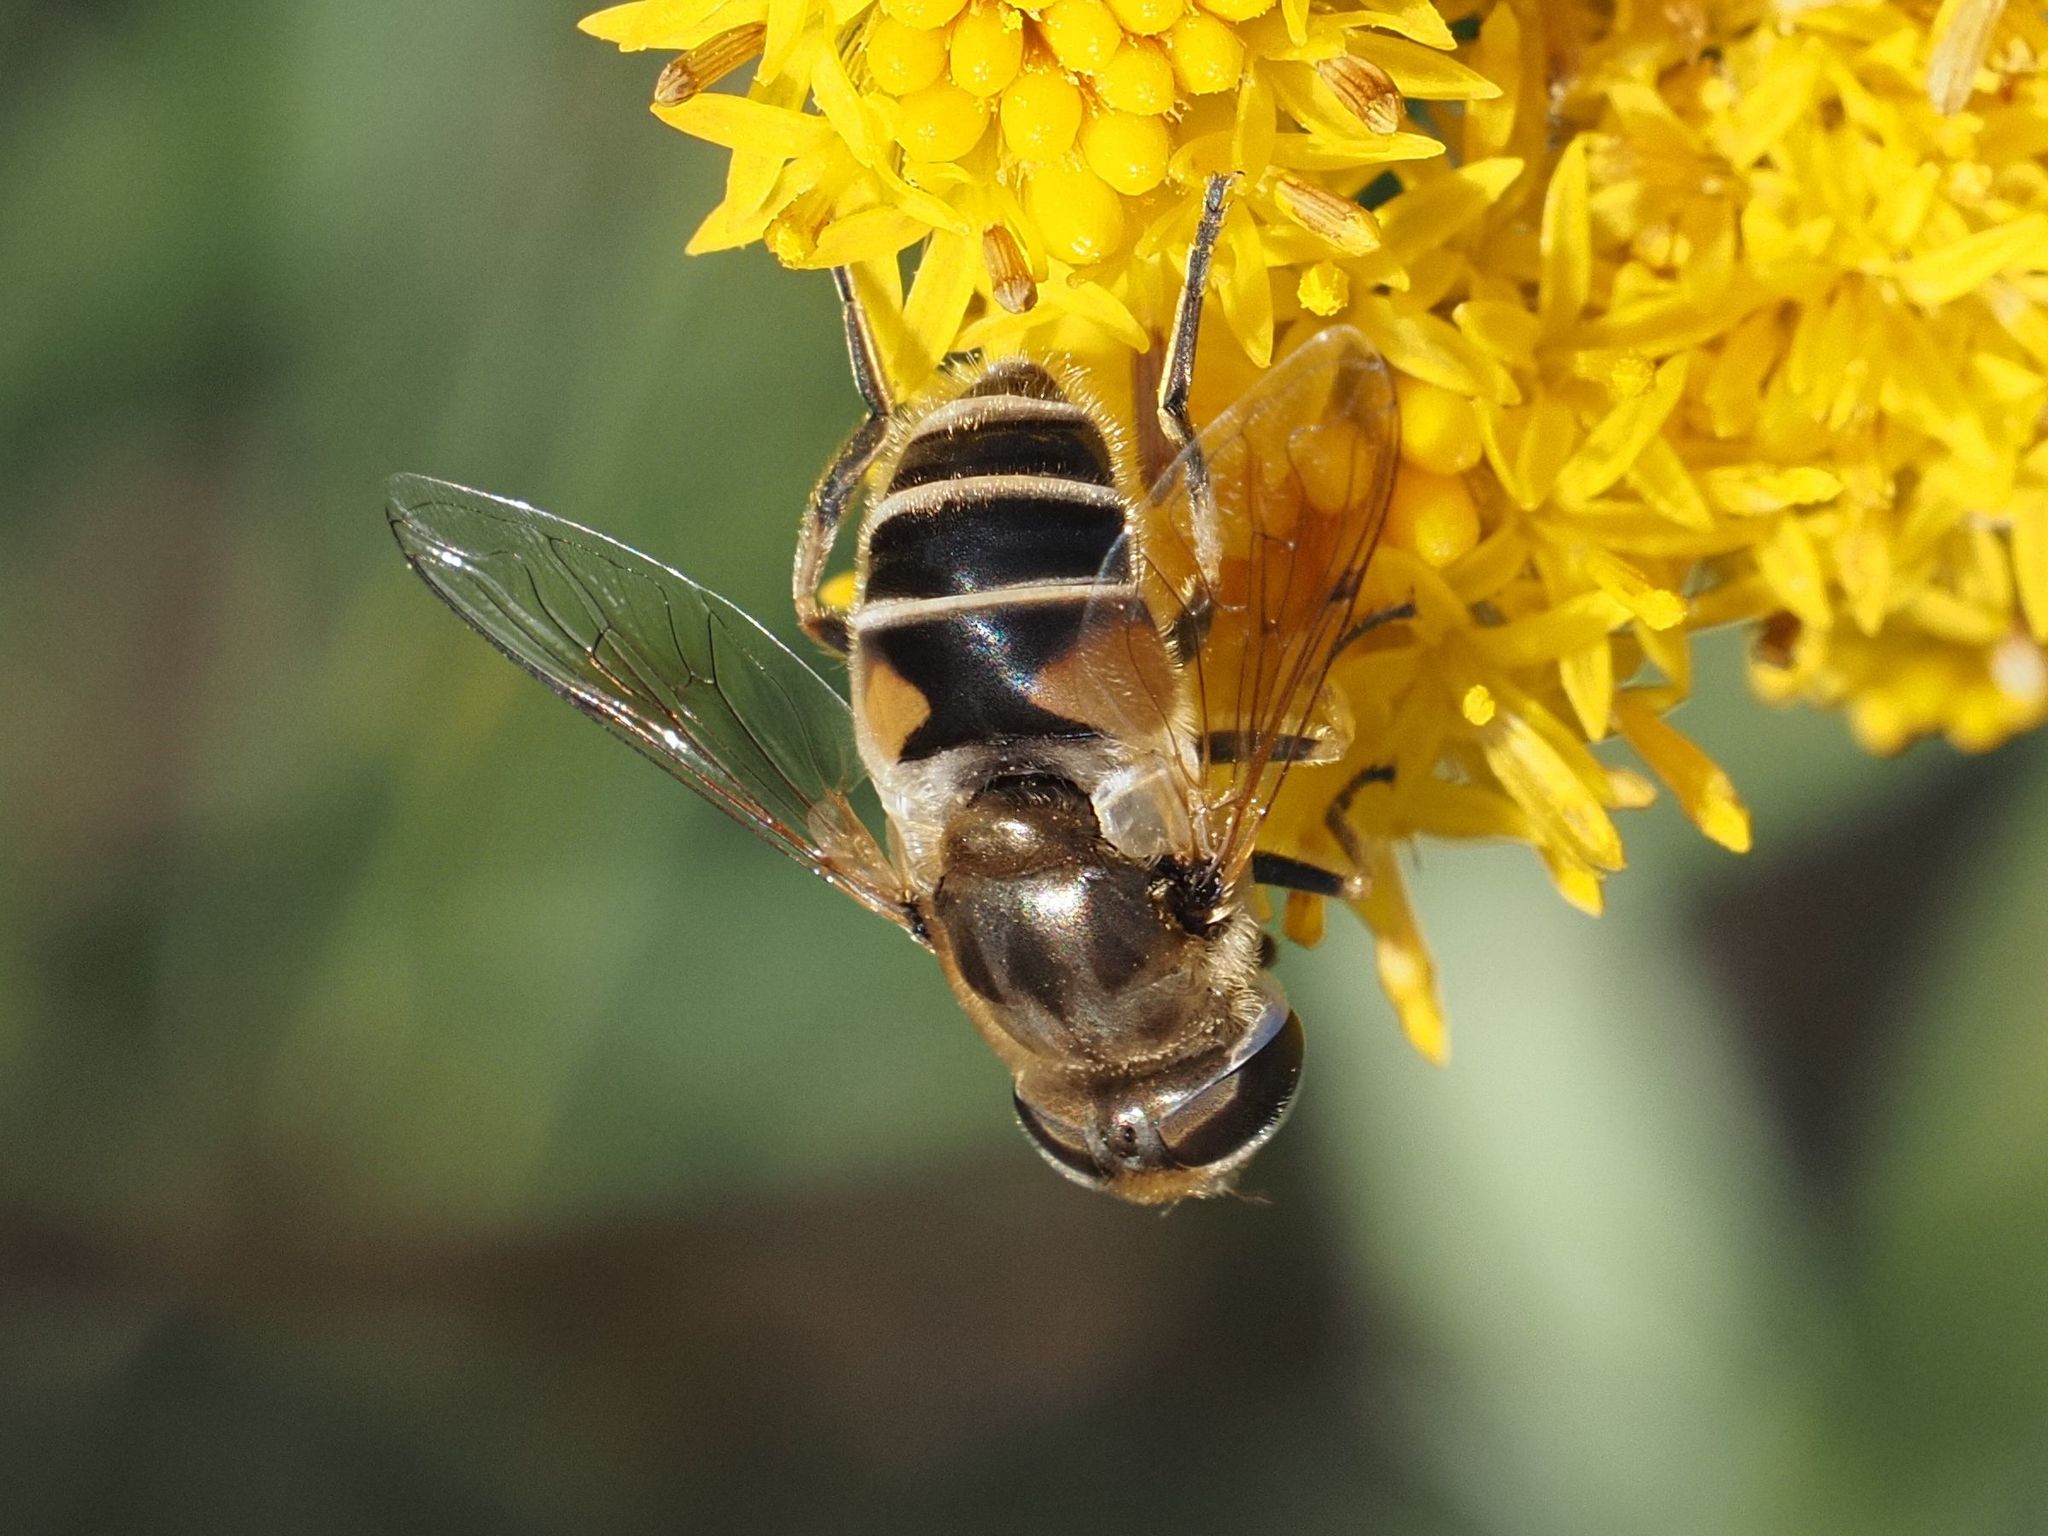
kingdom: Animalia
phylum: Arthropoda
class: Insecta
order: Diptera
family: Syrphidae
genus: Eristalis
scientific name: Eristalis arbustorum
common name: Hover fly
